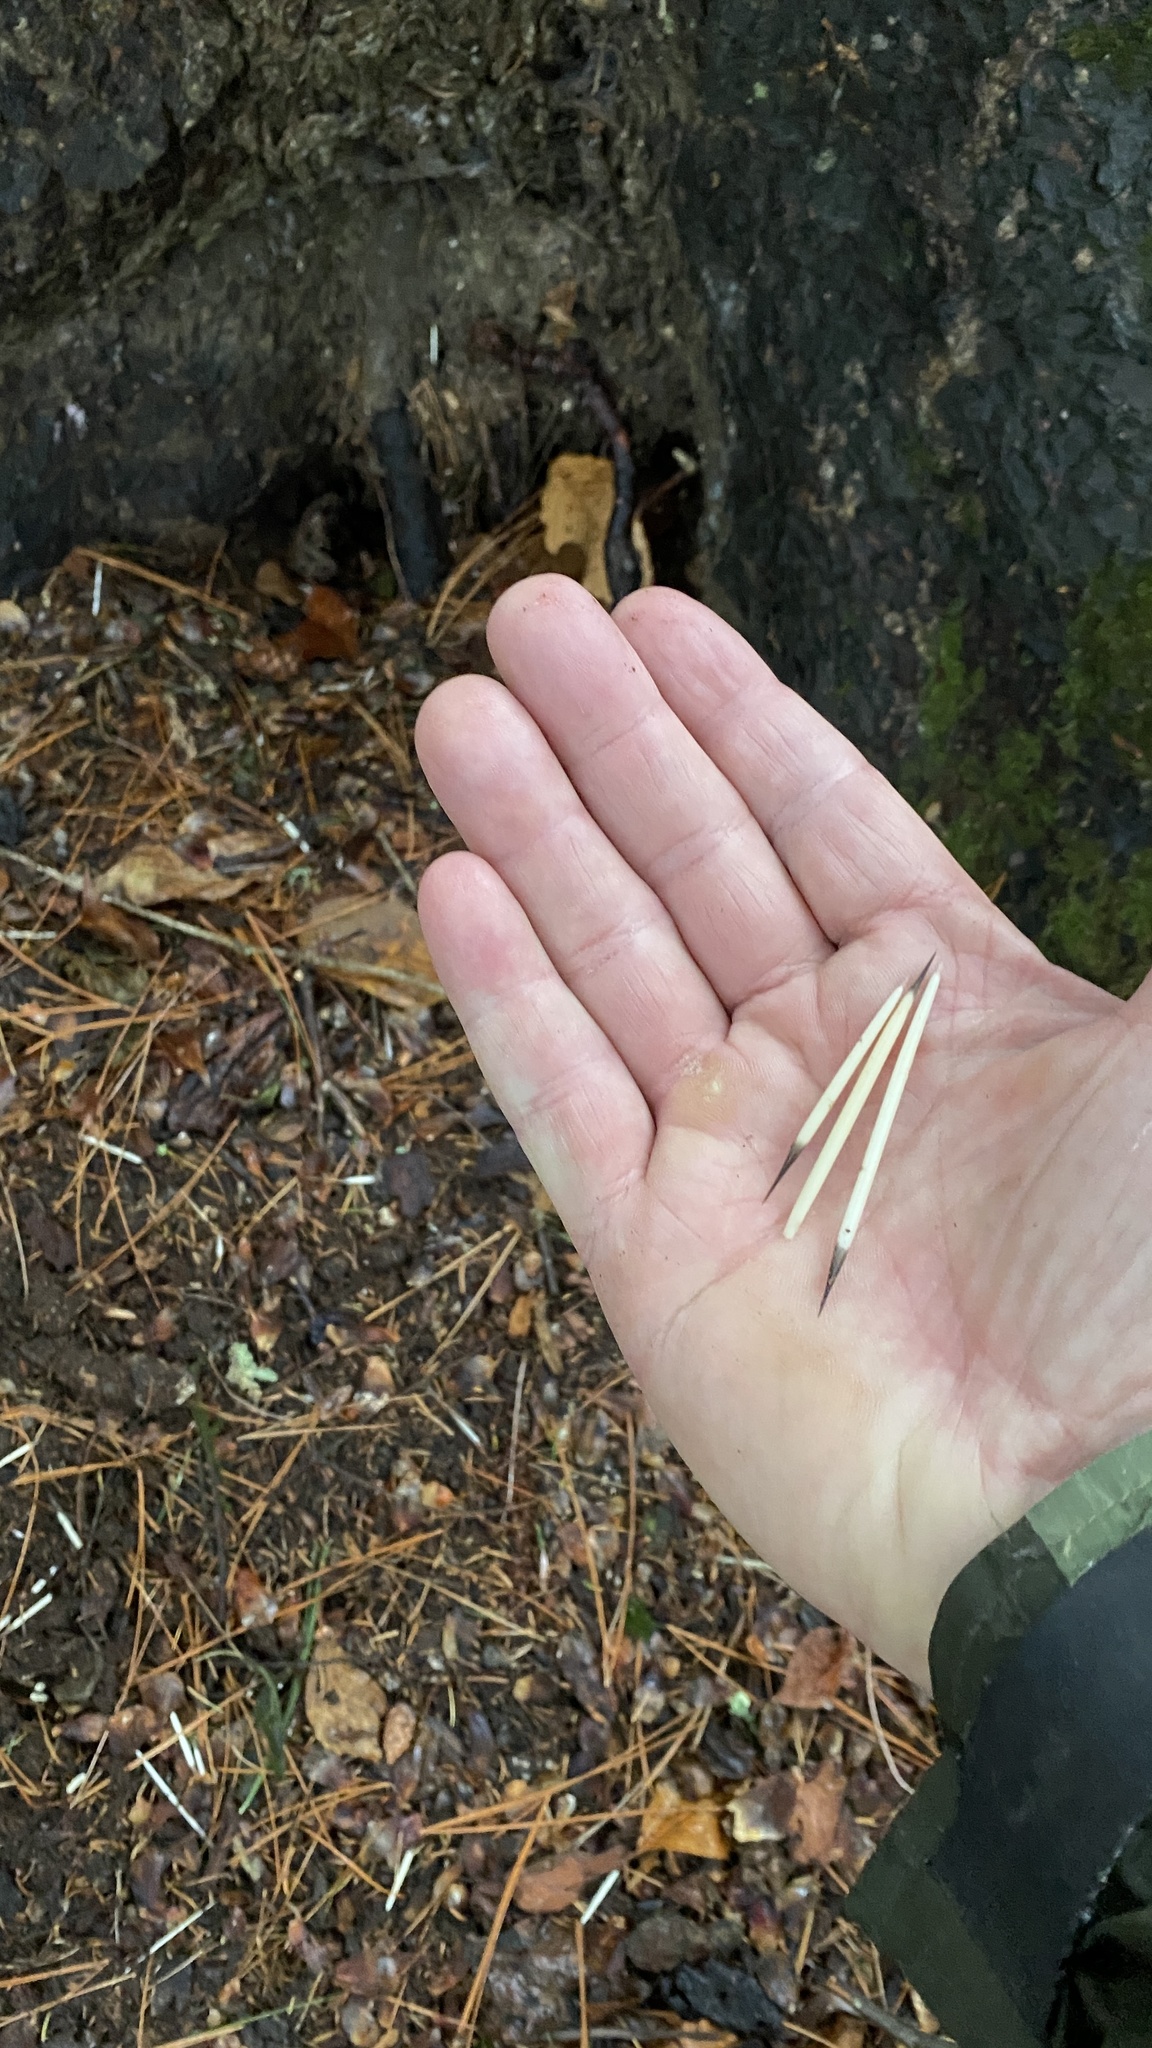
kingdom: Animalia
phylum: Chordata
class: Mammalia
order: Rodentia
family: Erethizontidae
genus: Erethizon
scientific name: Erethizon dorsatus
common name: North american porcupine
